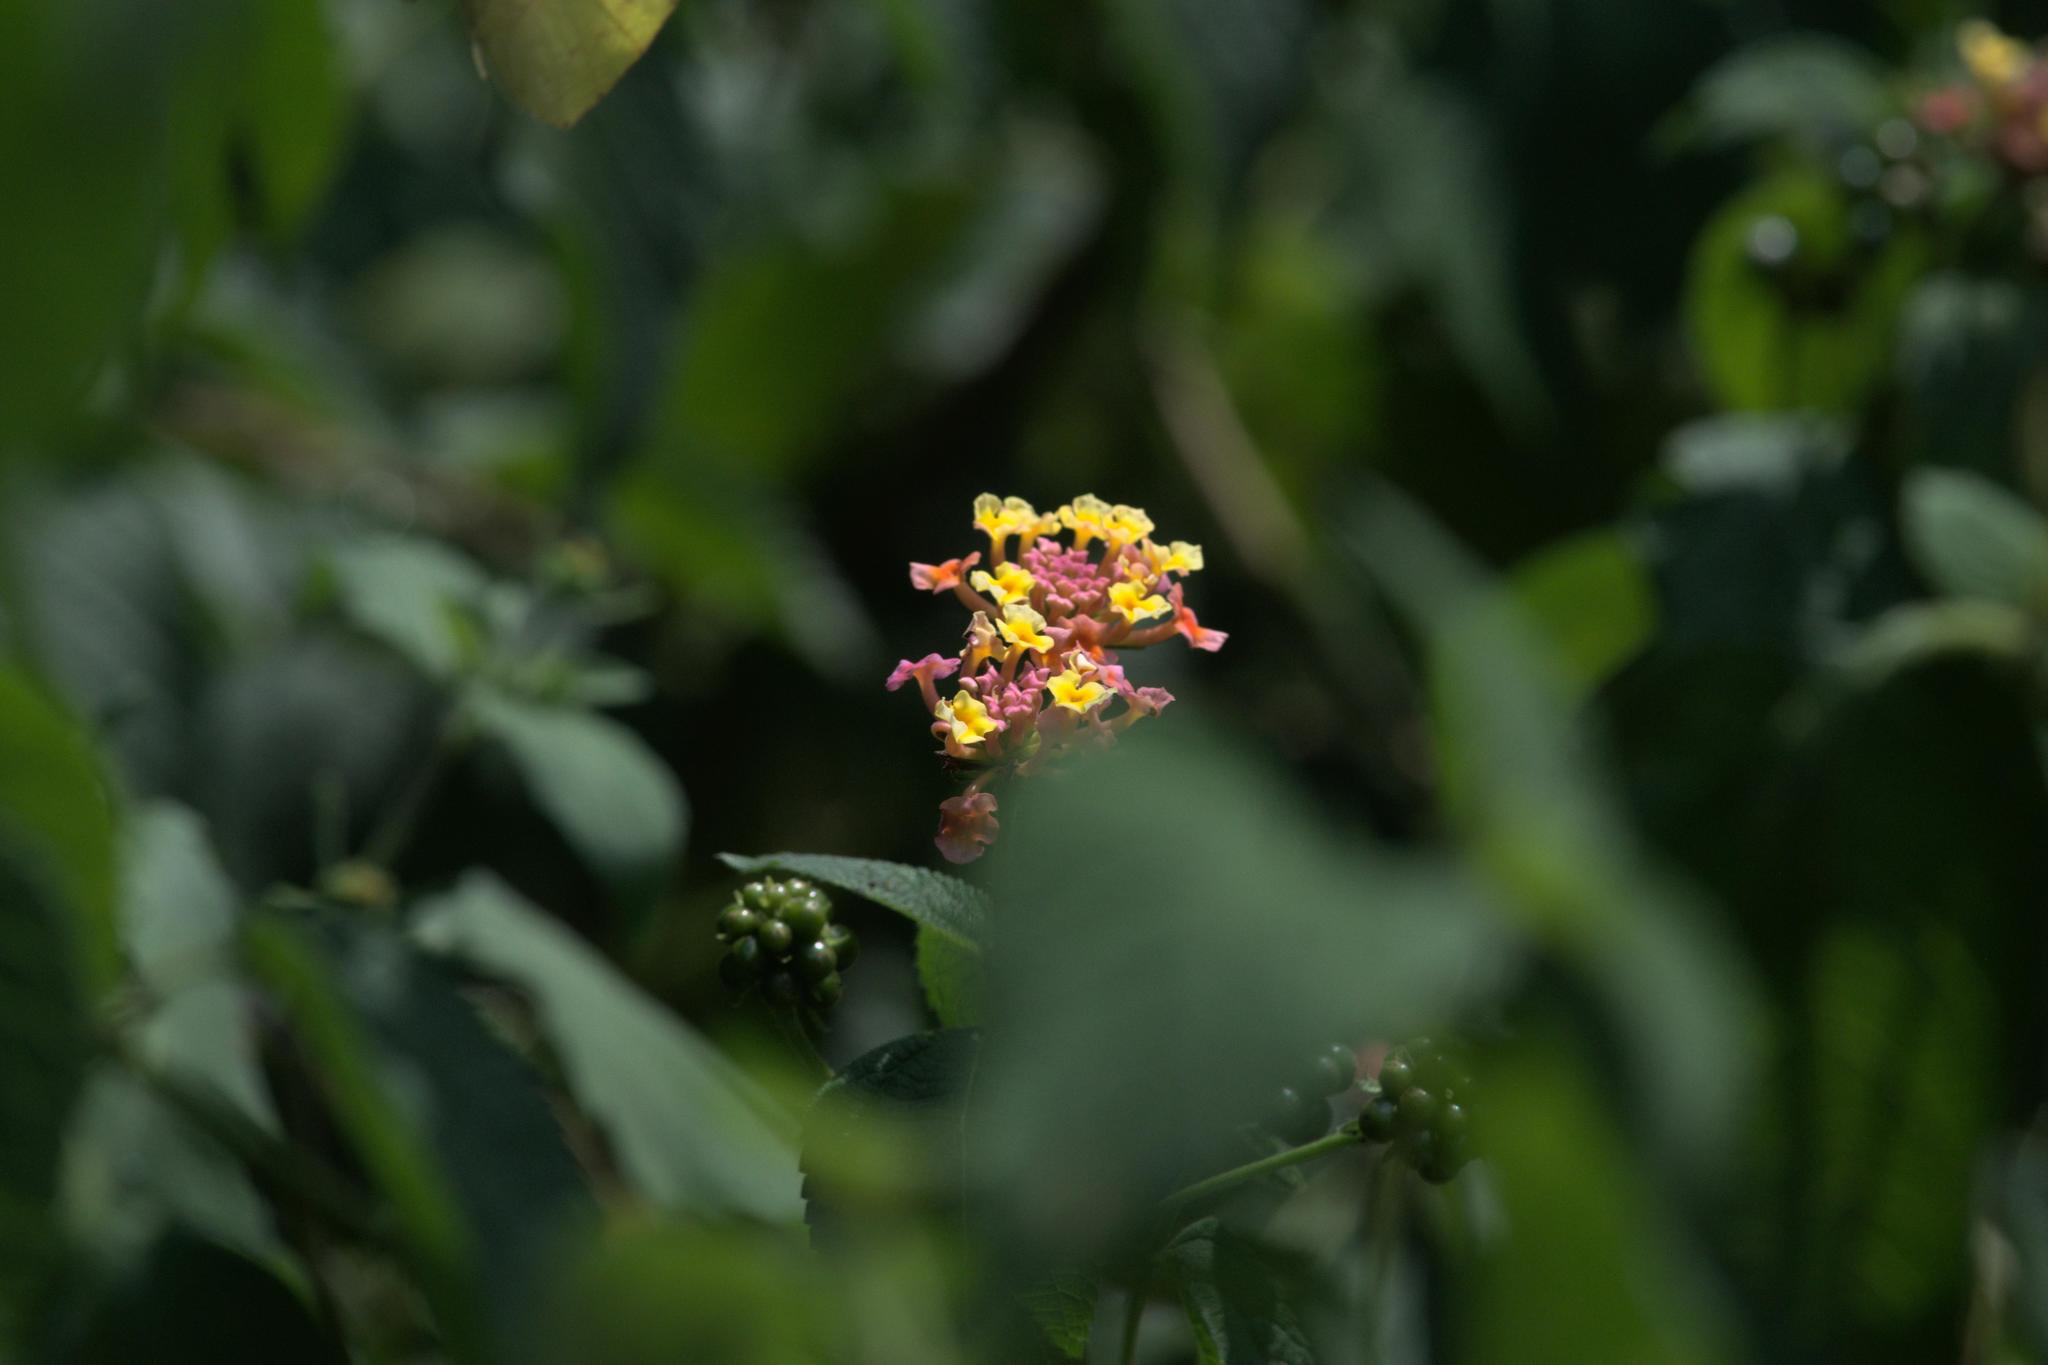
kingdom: Plantae
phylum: Tracheophyta
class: Magnoliopsida
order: Lamiales
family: Verbenaceae
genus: Lantana
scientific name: Lantana camara
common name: Lantana
